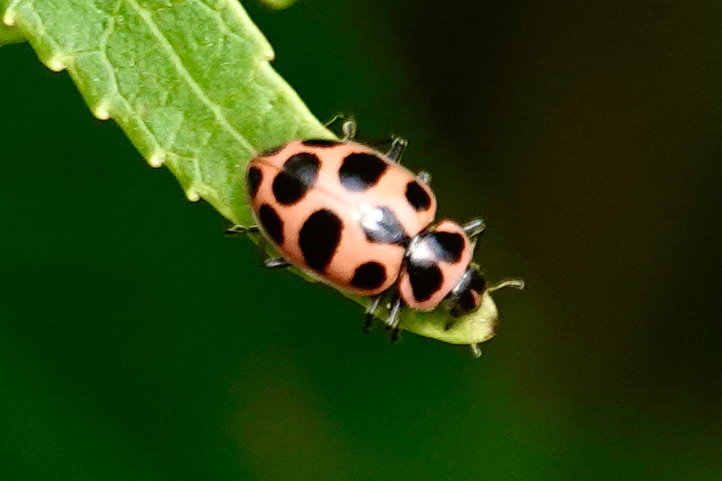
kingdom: Animalia
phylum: Arthropoda
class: Insecta
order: Coleoptera
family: Coccinellidae
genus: Coleomegilla
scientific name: Coleomegilla maculata
